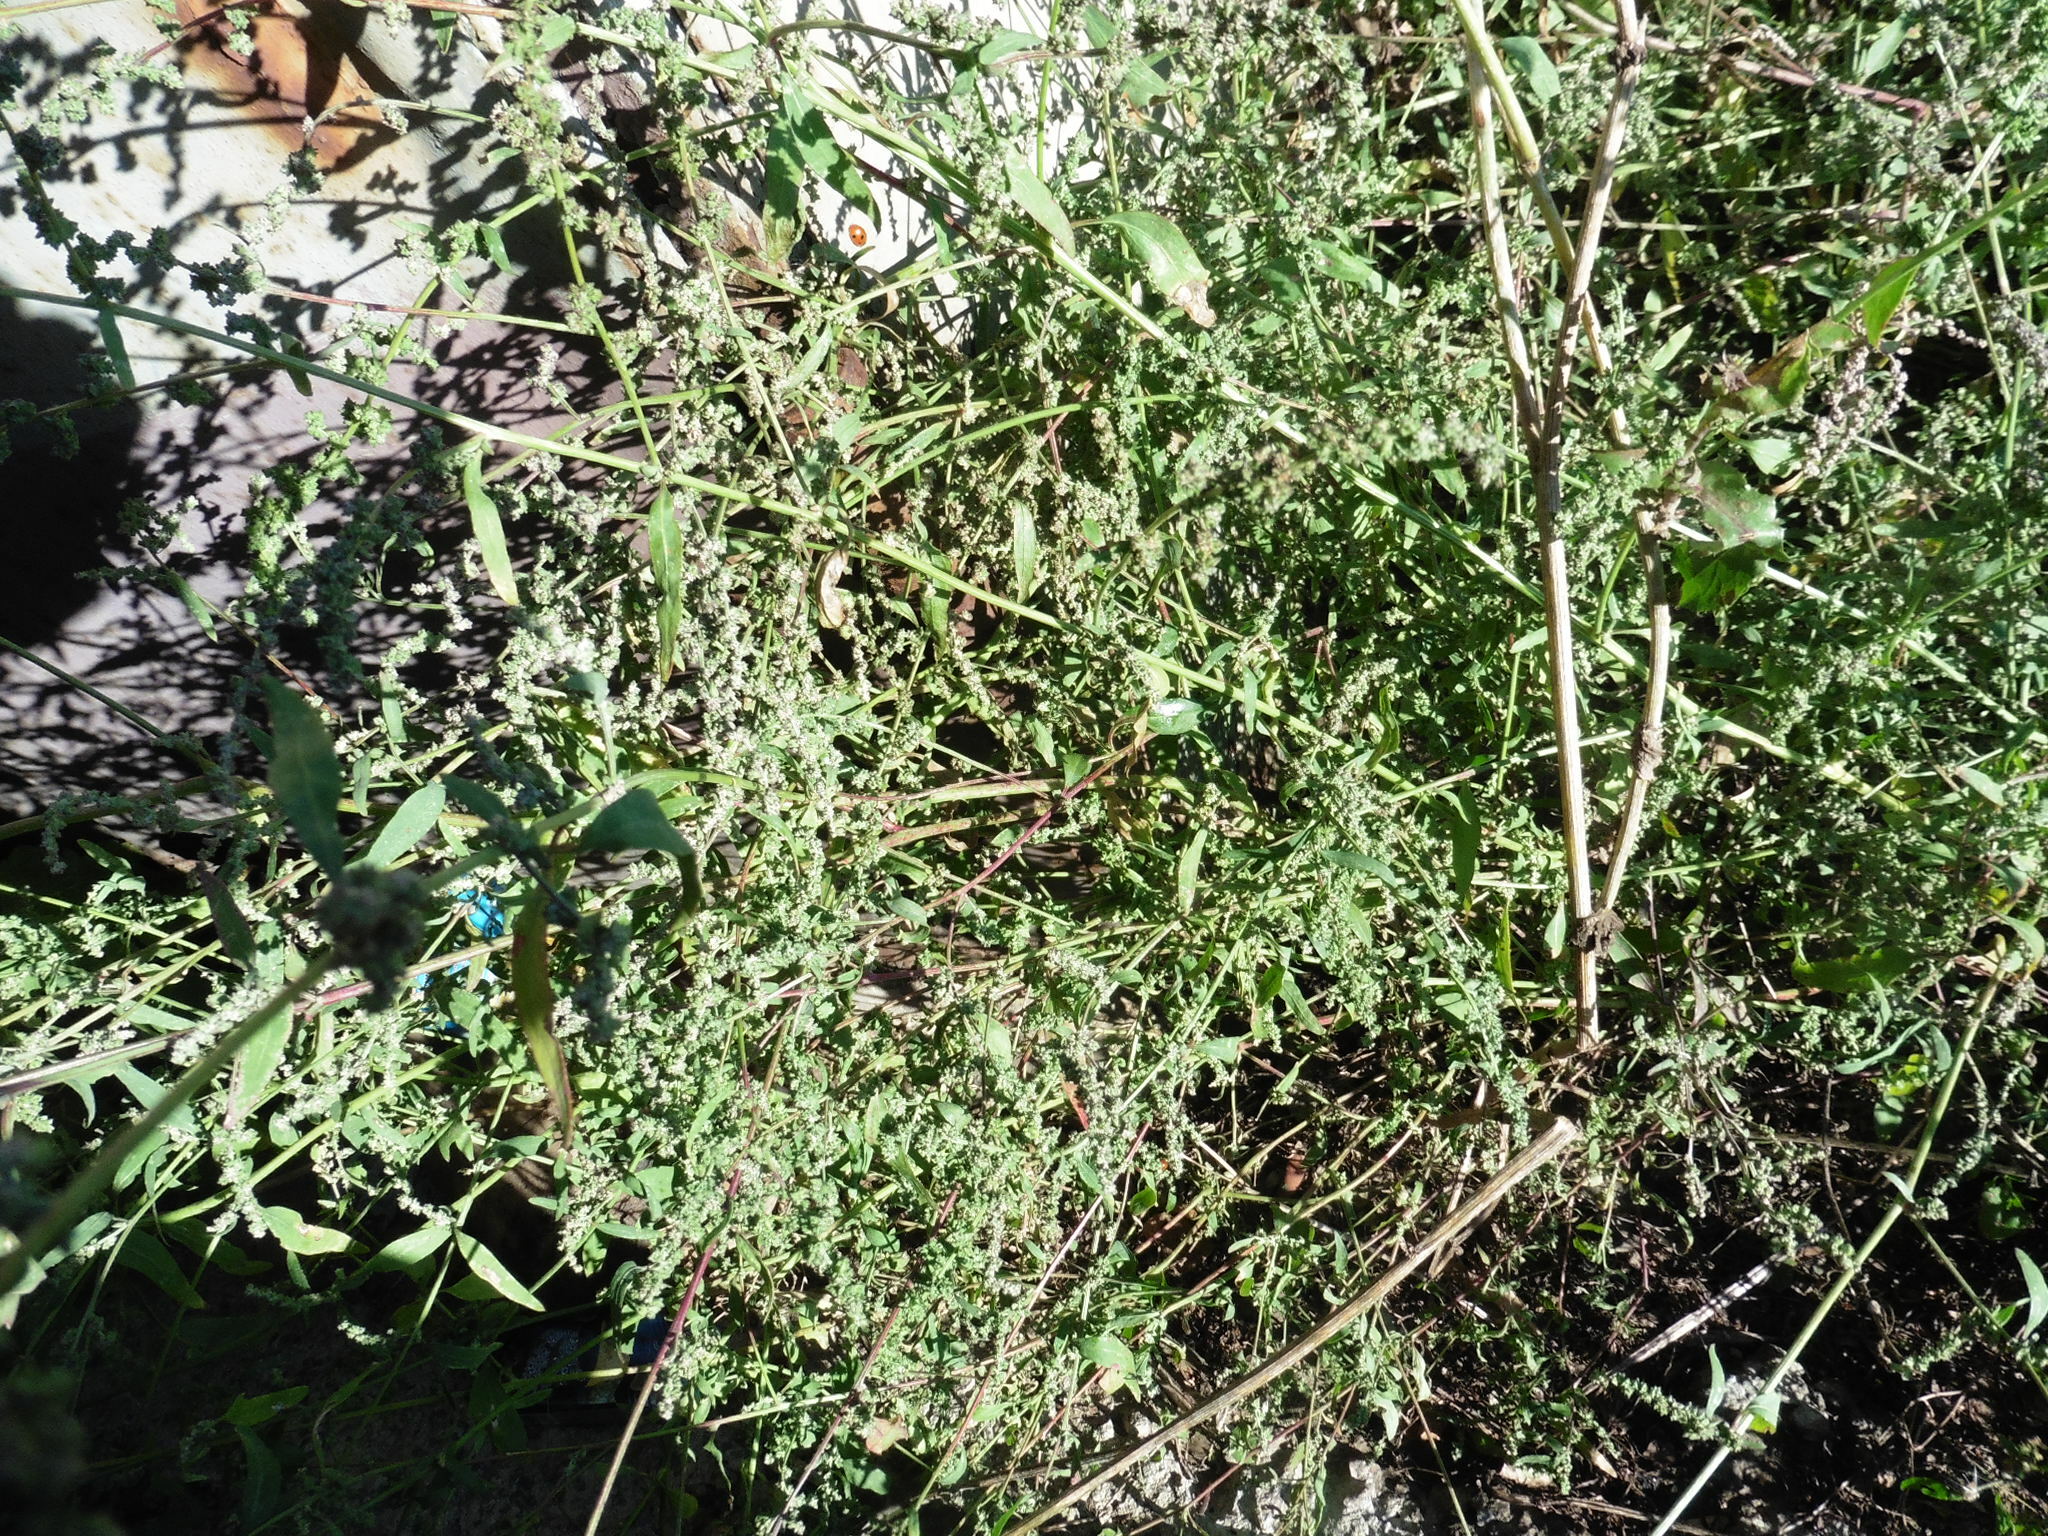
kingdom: Plantae
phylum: Tracheophyta
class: Magnoliopsida
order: Caryophyllales
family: Amaranthaceae
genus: Atriplex
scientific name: Atriplex patula
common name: Common orache
